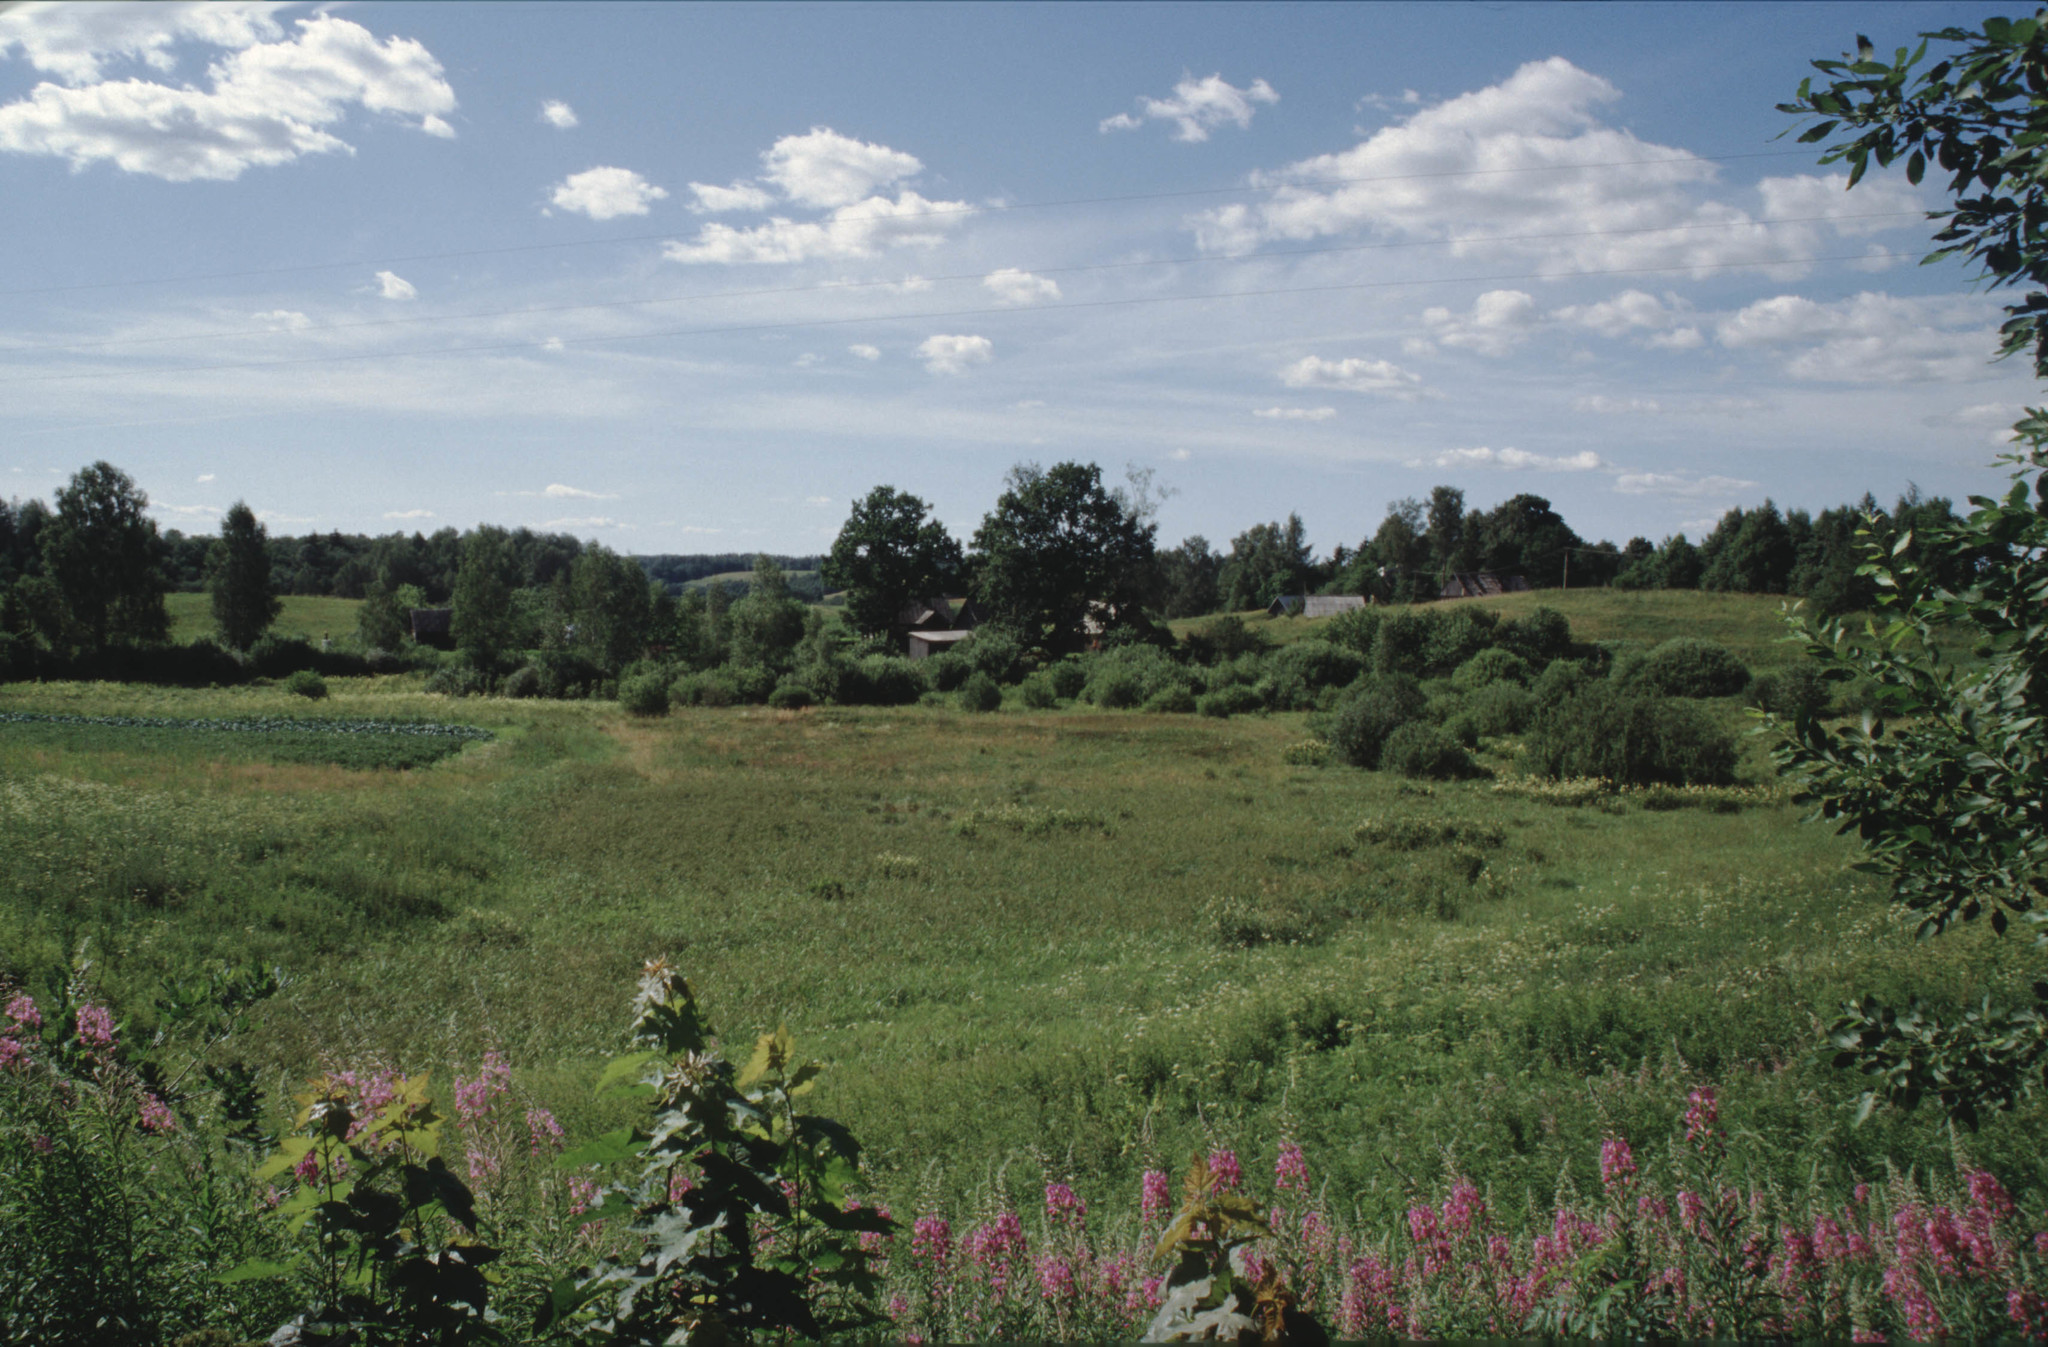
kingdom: Plantae
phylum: Tracheophyta
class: Magnoliopsida
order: Myrtales
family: Onagraceae
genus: Chamaenerion
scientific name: Chamaenerion angustifolium
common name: Fireweed
